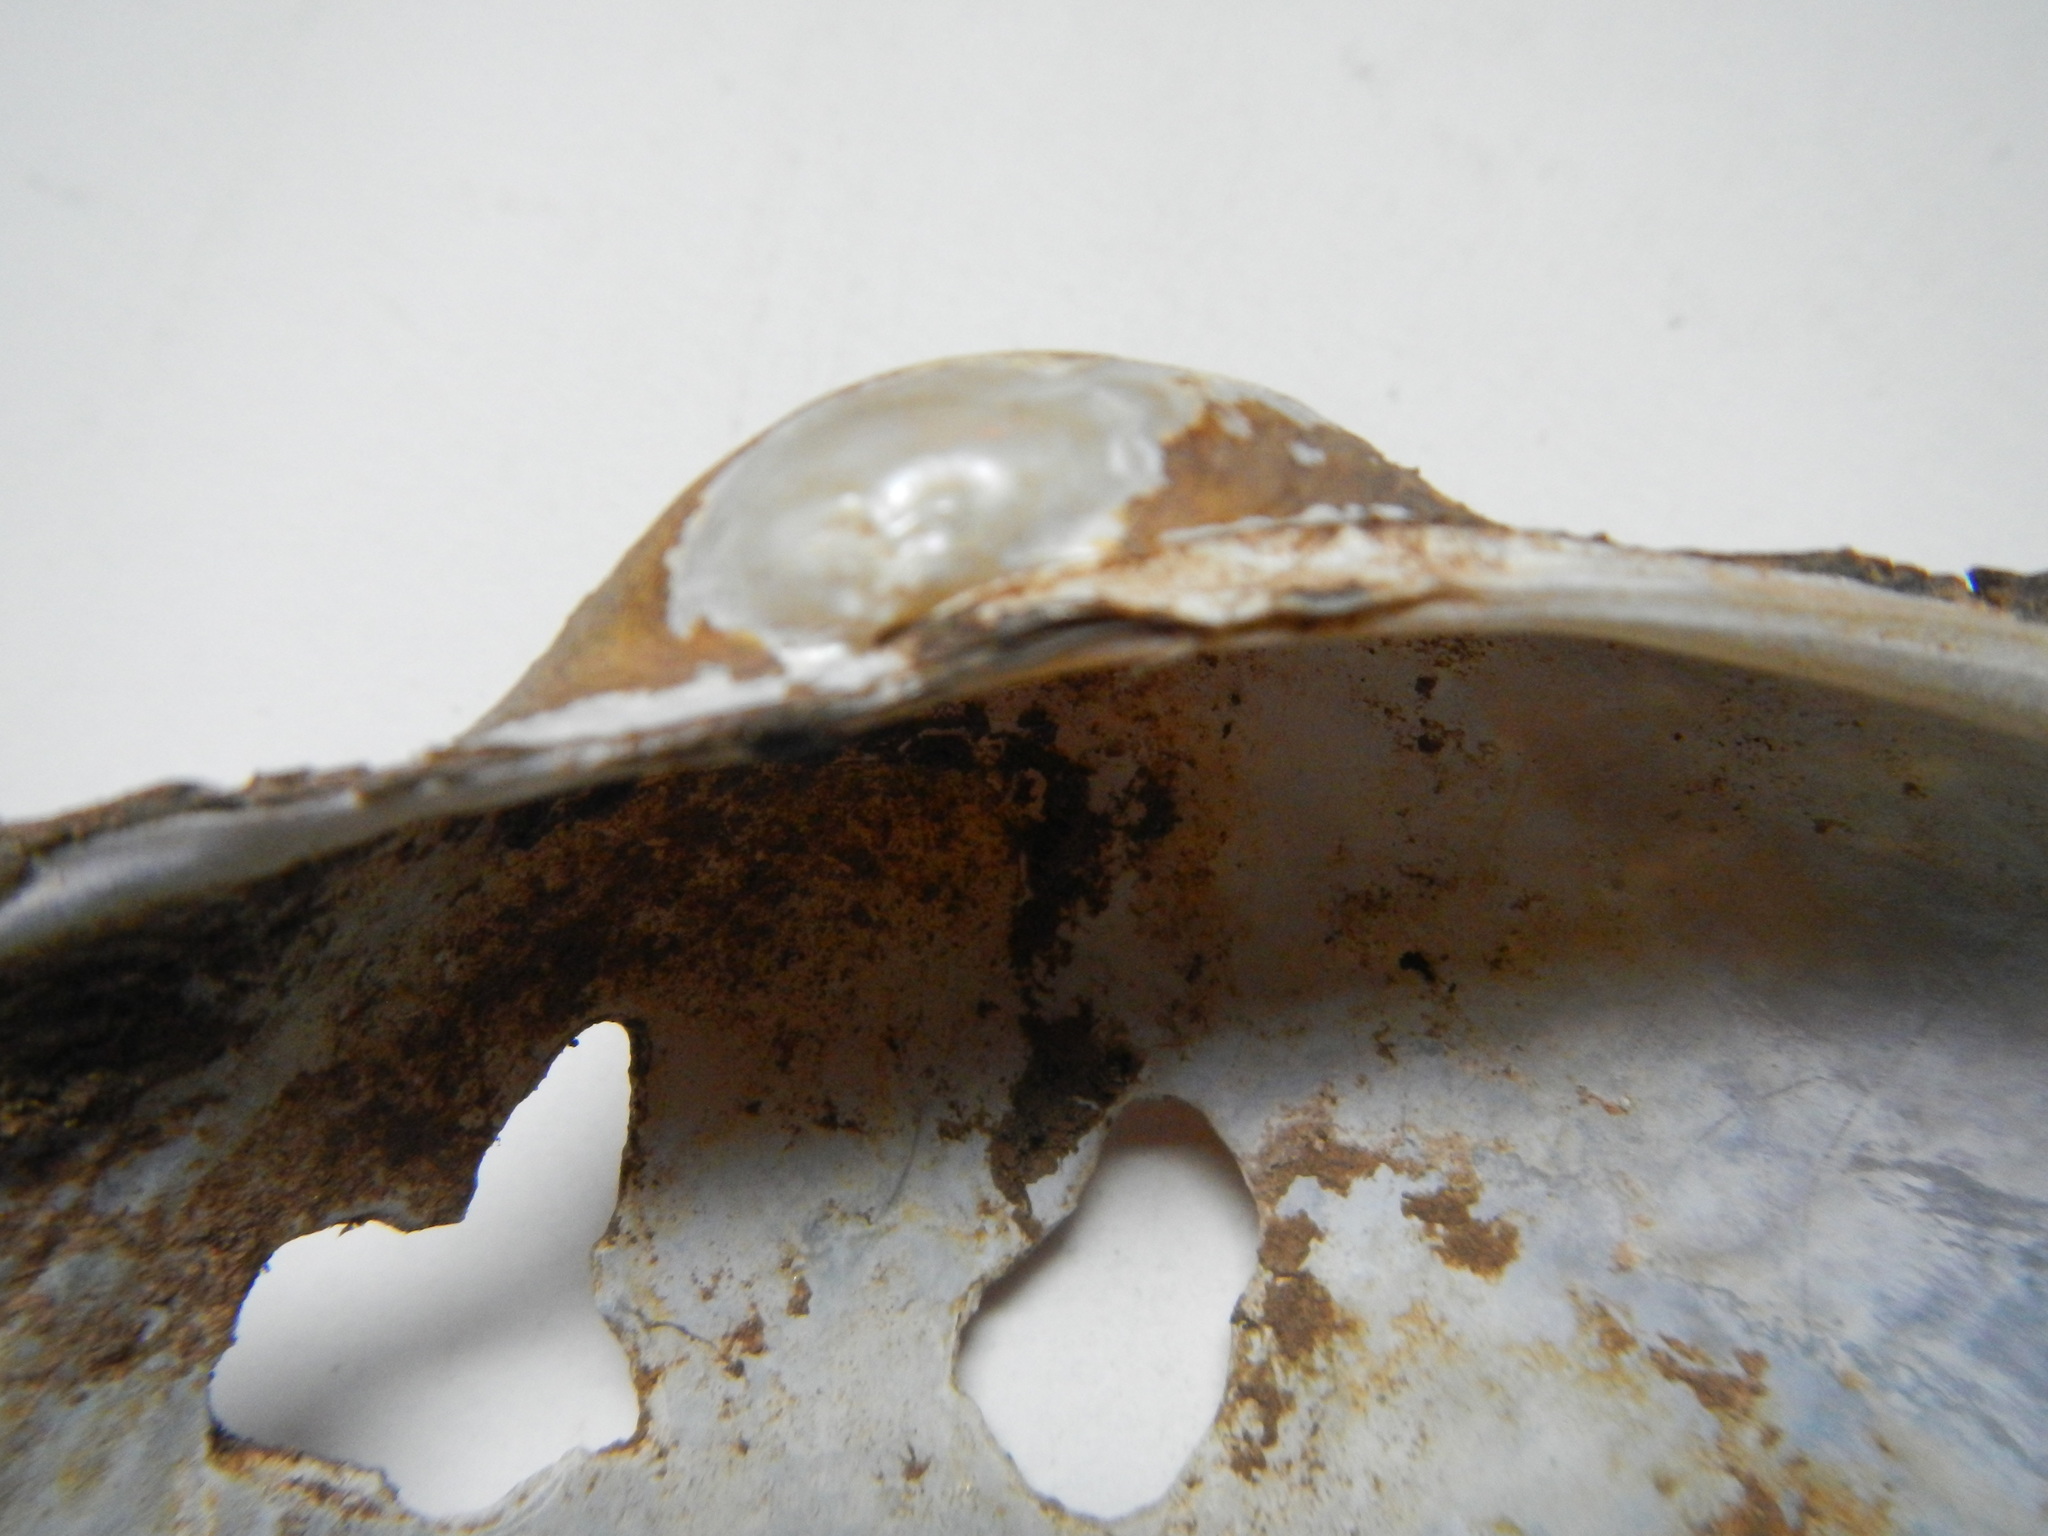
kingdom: Animalia
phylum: Mollusca
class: Bivalvia
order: Unionida
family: Unionidae
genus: Pyganodon
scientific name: Pyganodon grandis
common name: Giant floater
